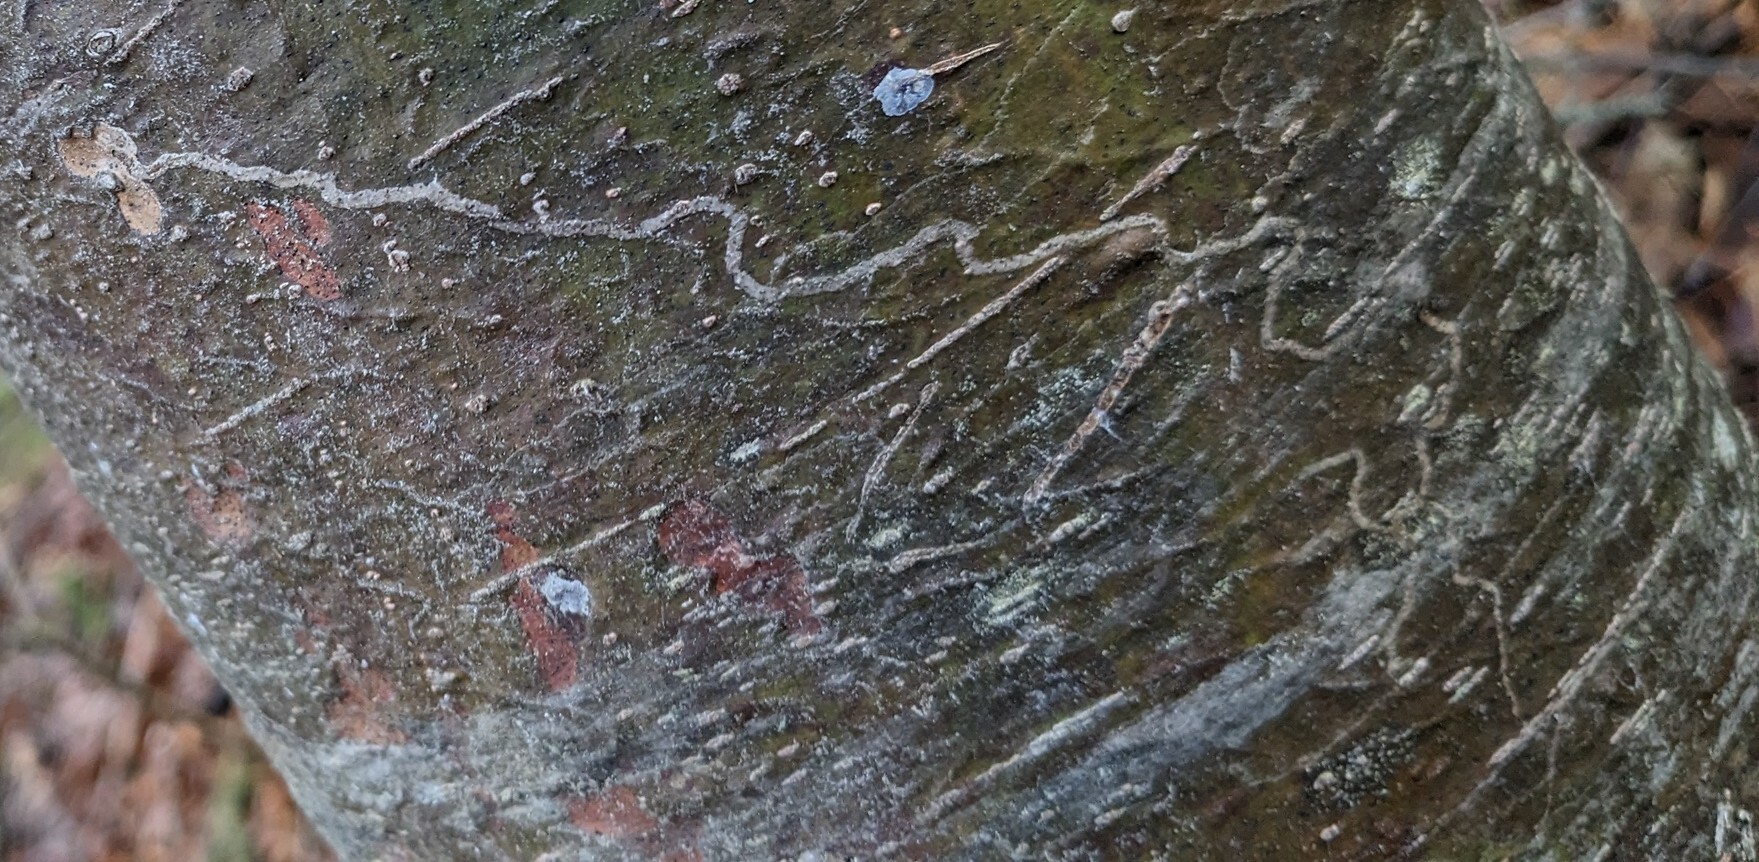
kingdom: Animalia
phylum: Arthropoda
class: Insecta
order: Lepidoptera
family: Gracillariidae
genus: Marmara
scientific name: Marmara fasciella
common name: White pine barkminer moth
